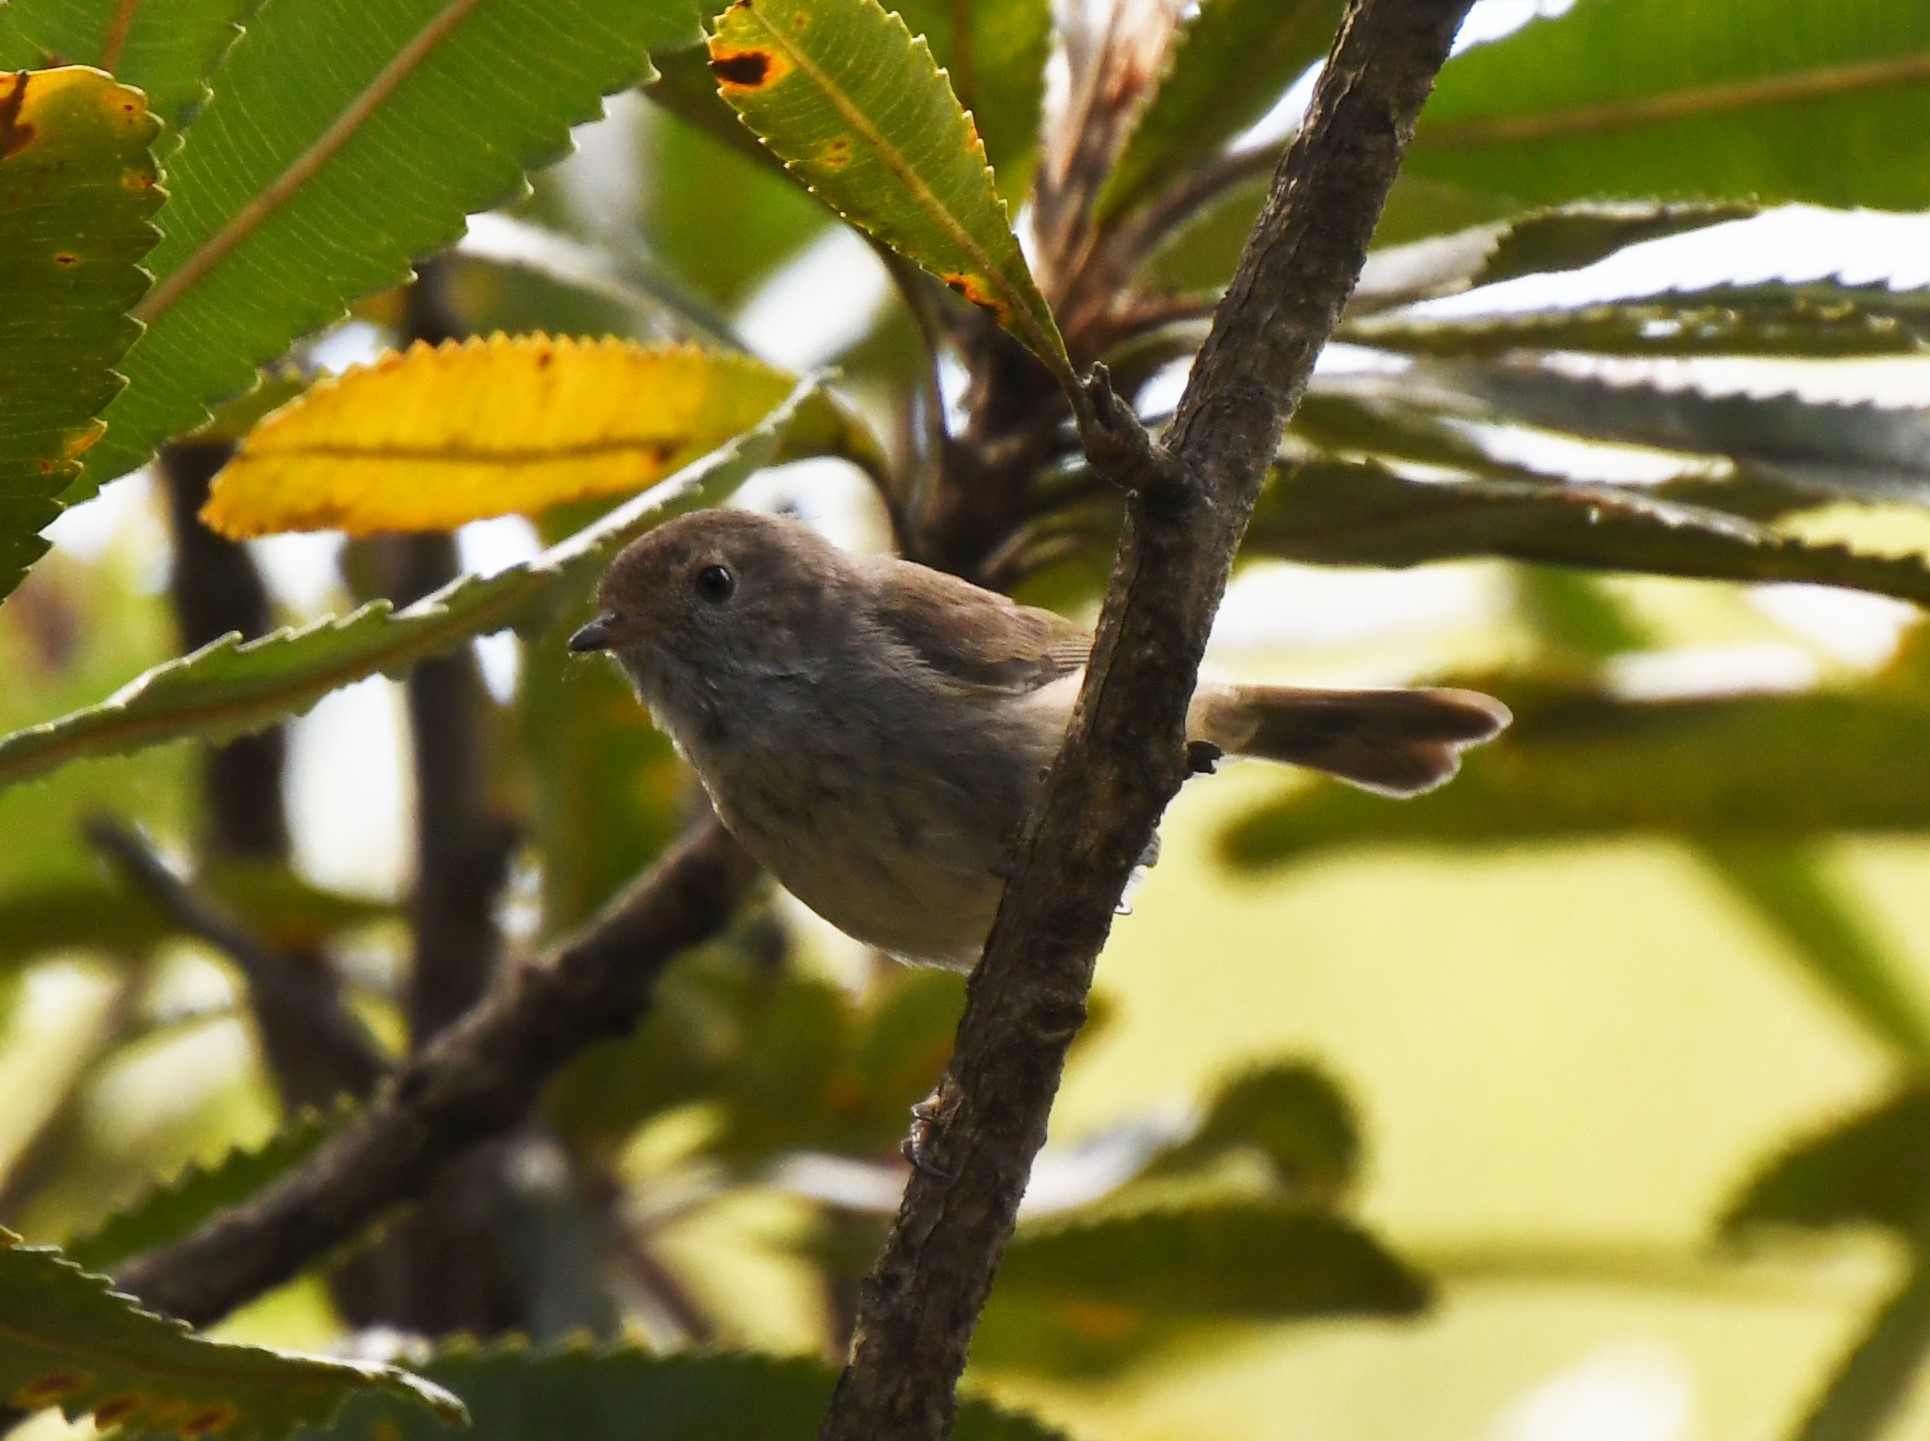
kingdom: Animalia
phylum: Chordata
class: Aves
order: Passeriformes
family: Acanthizidae
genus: Acanthiza
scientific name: Acanthiza pusilla
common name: Brown thornbill
